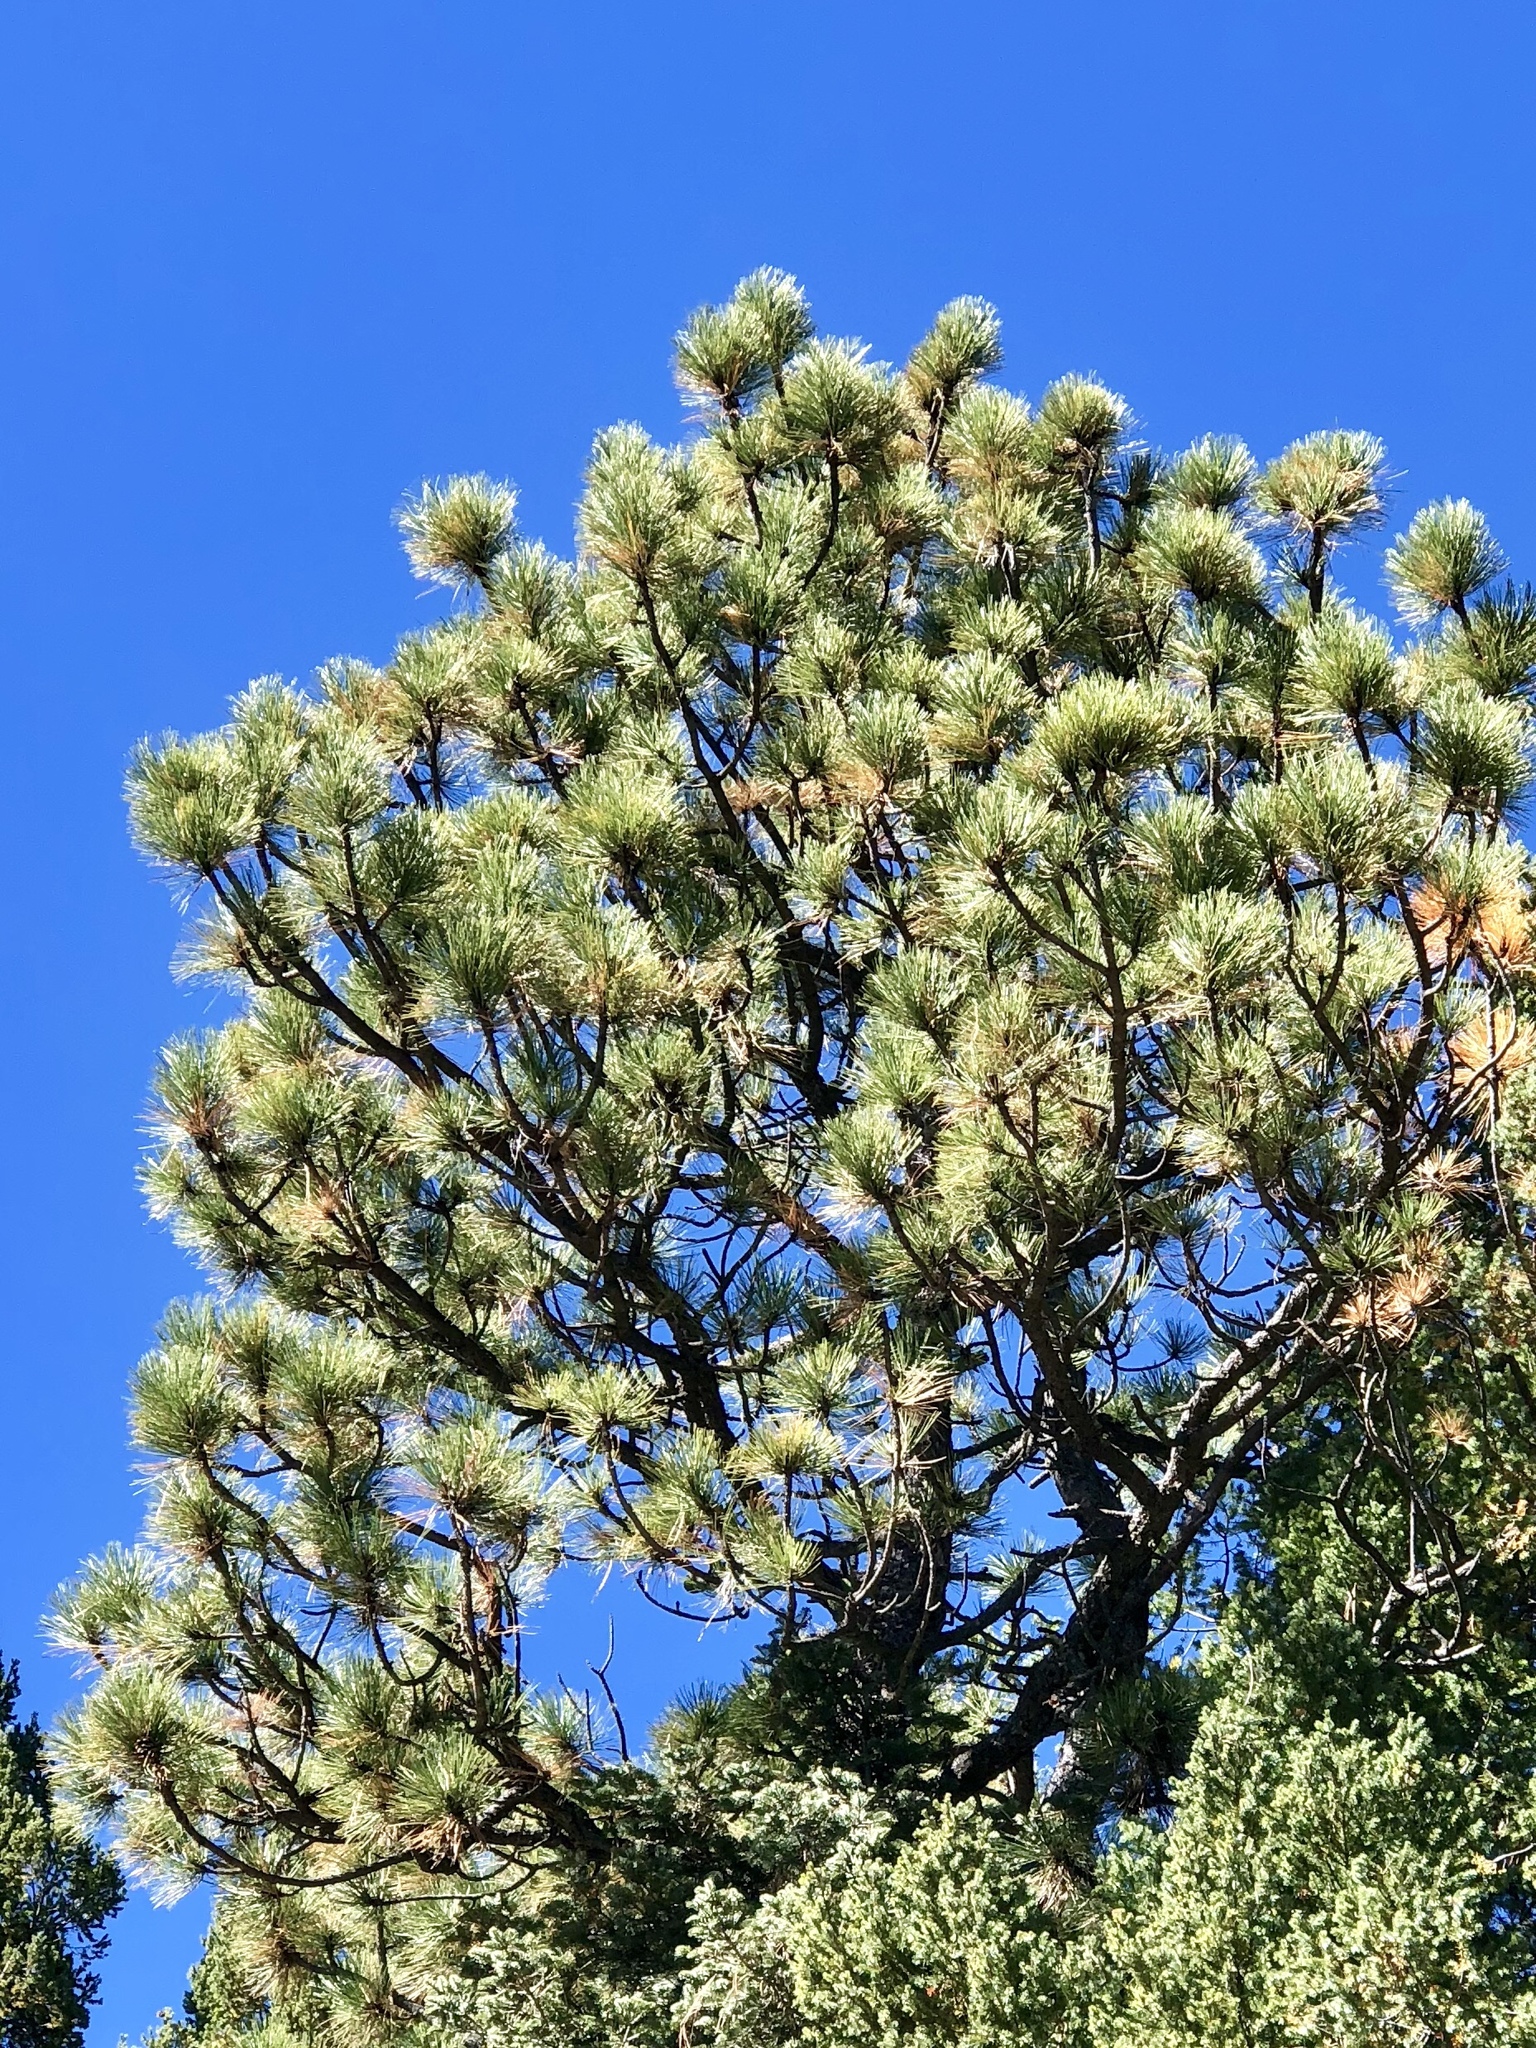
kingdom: Plantae
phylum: Tracheophyta
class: Pinopsida
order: Pinales
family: Pinaceae
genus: Pinus
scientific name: Pinus ponderosa
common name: Western yellow-pine
